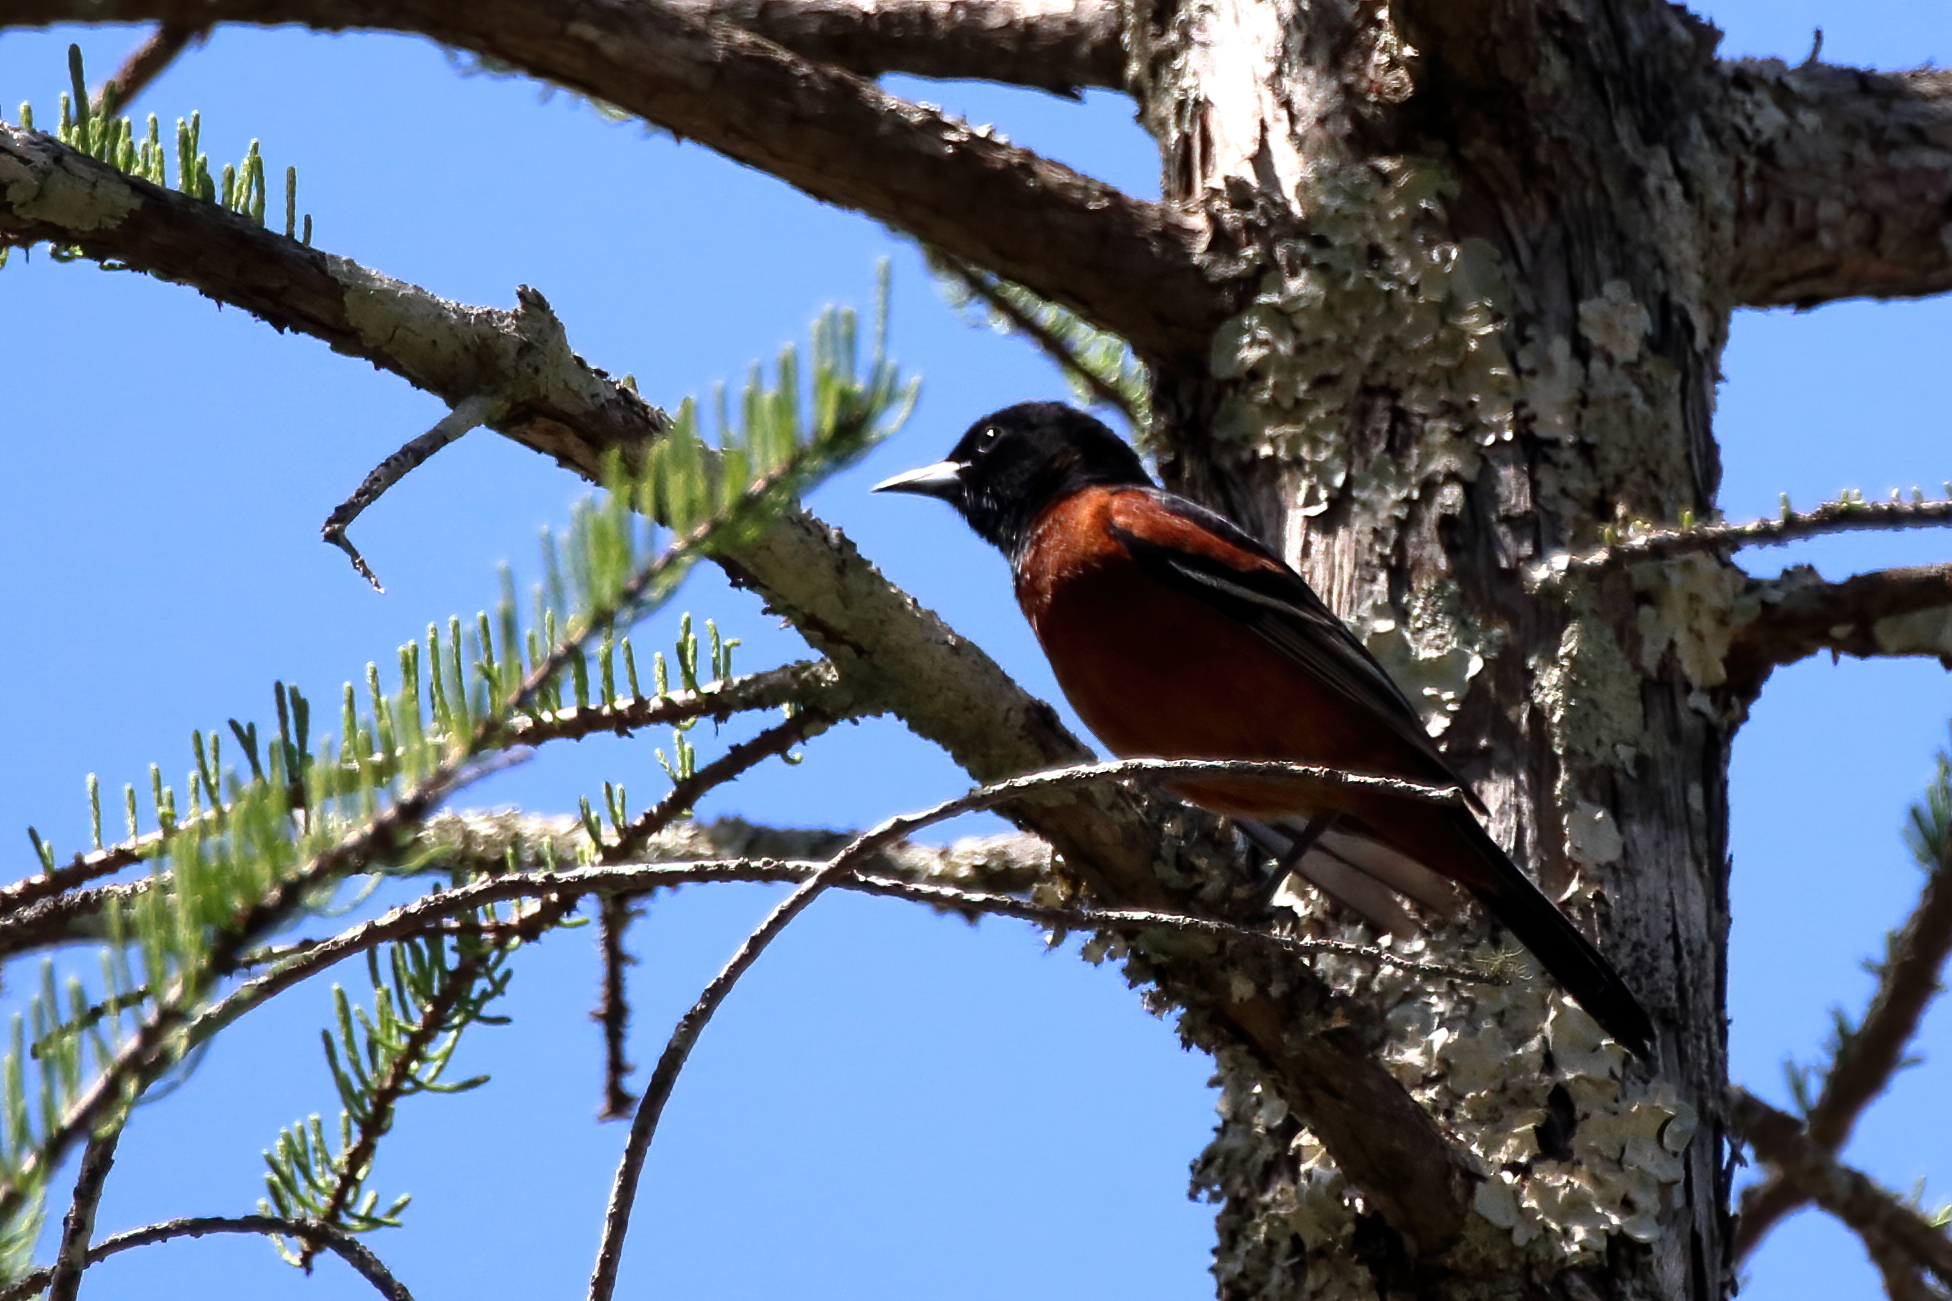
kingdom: Animalia
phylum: Chordata
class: Aves
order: Passeriformes
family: Icteridae
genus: Icterus
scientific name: Icterus spurius
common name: Orchard oriole
